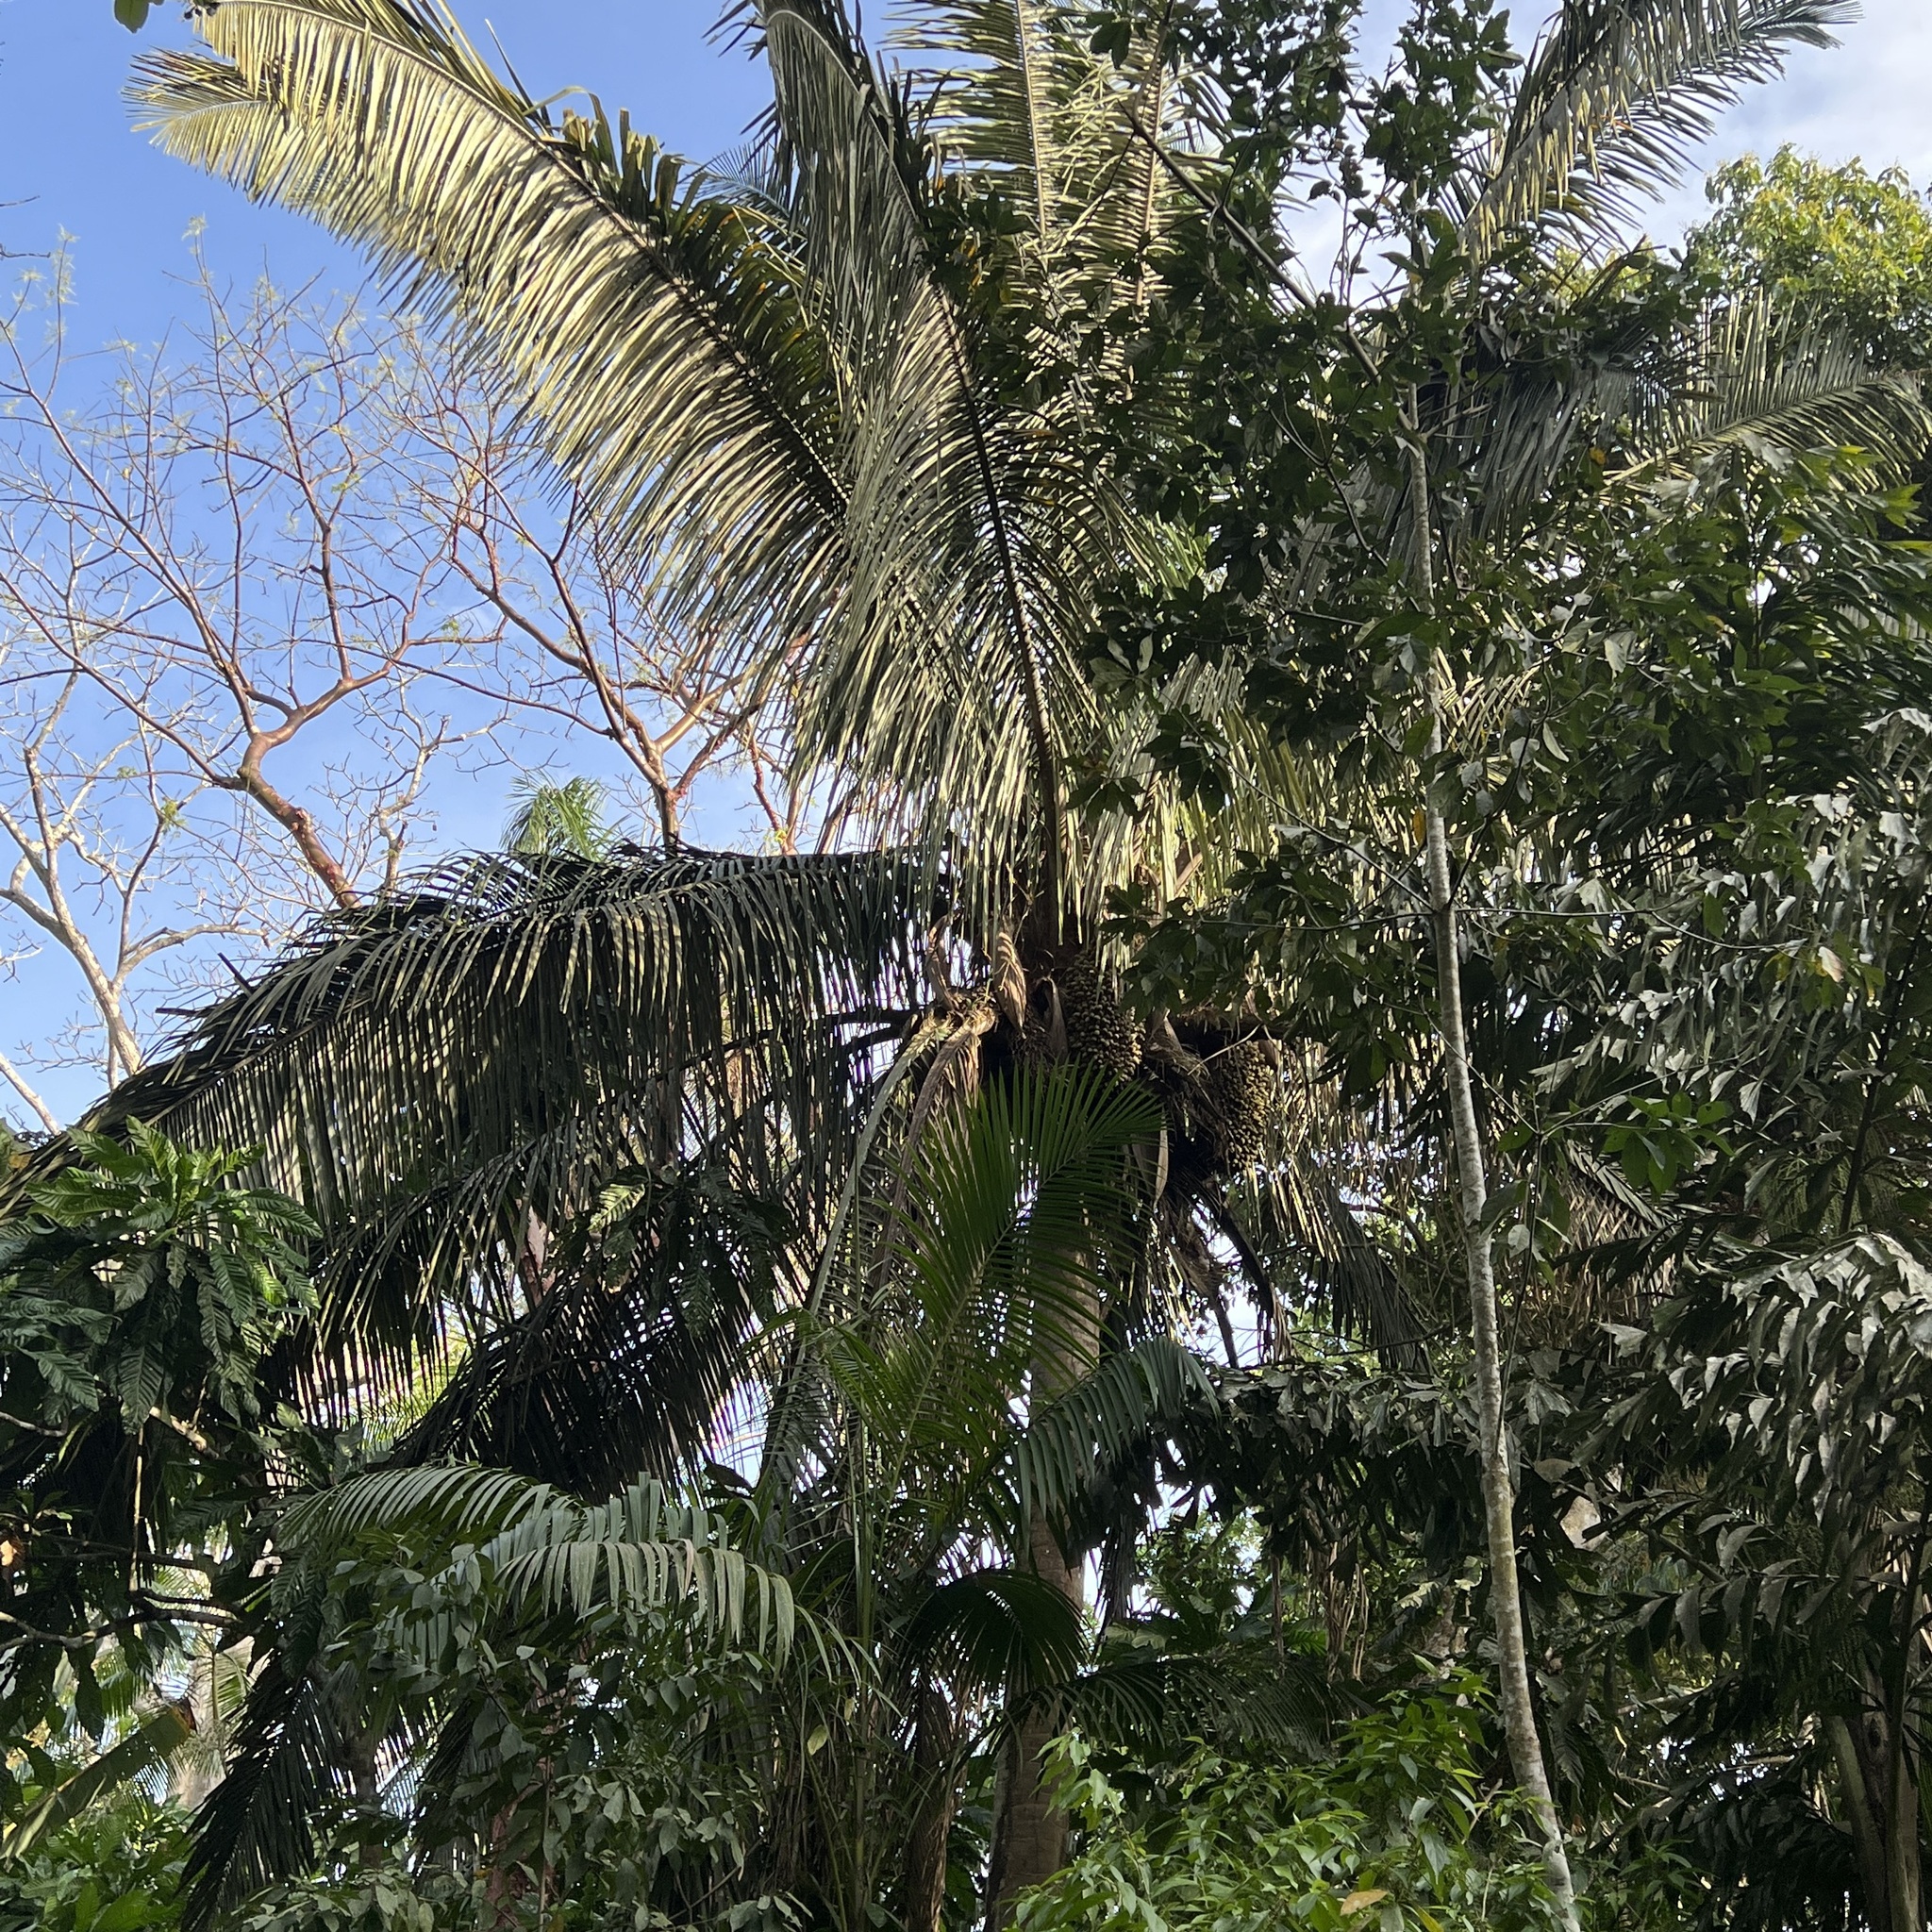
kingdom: Plantae
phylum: Tracheophyta
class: Liliopsida
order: Arecales
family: Arecaceae
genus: Attalea
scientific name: Attalea butyracea
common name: Kuakish
